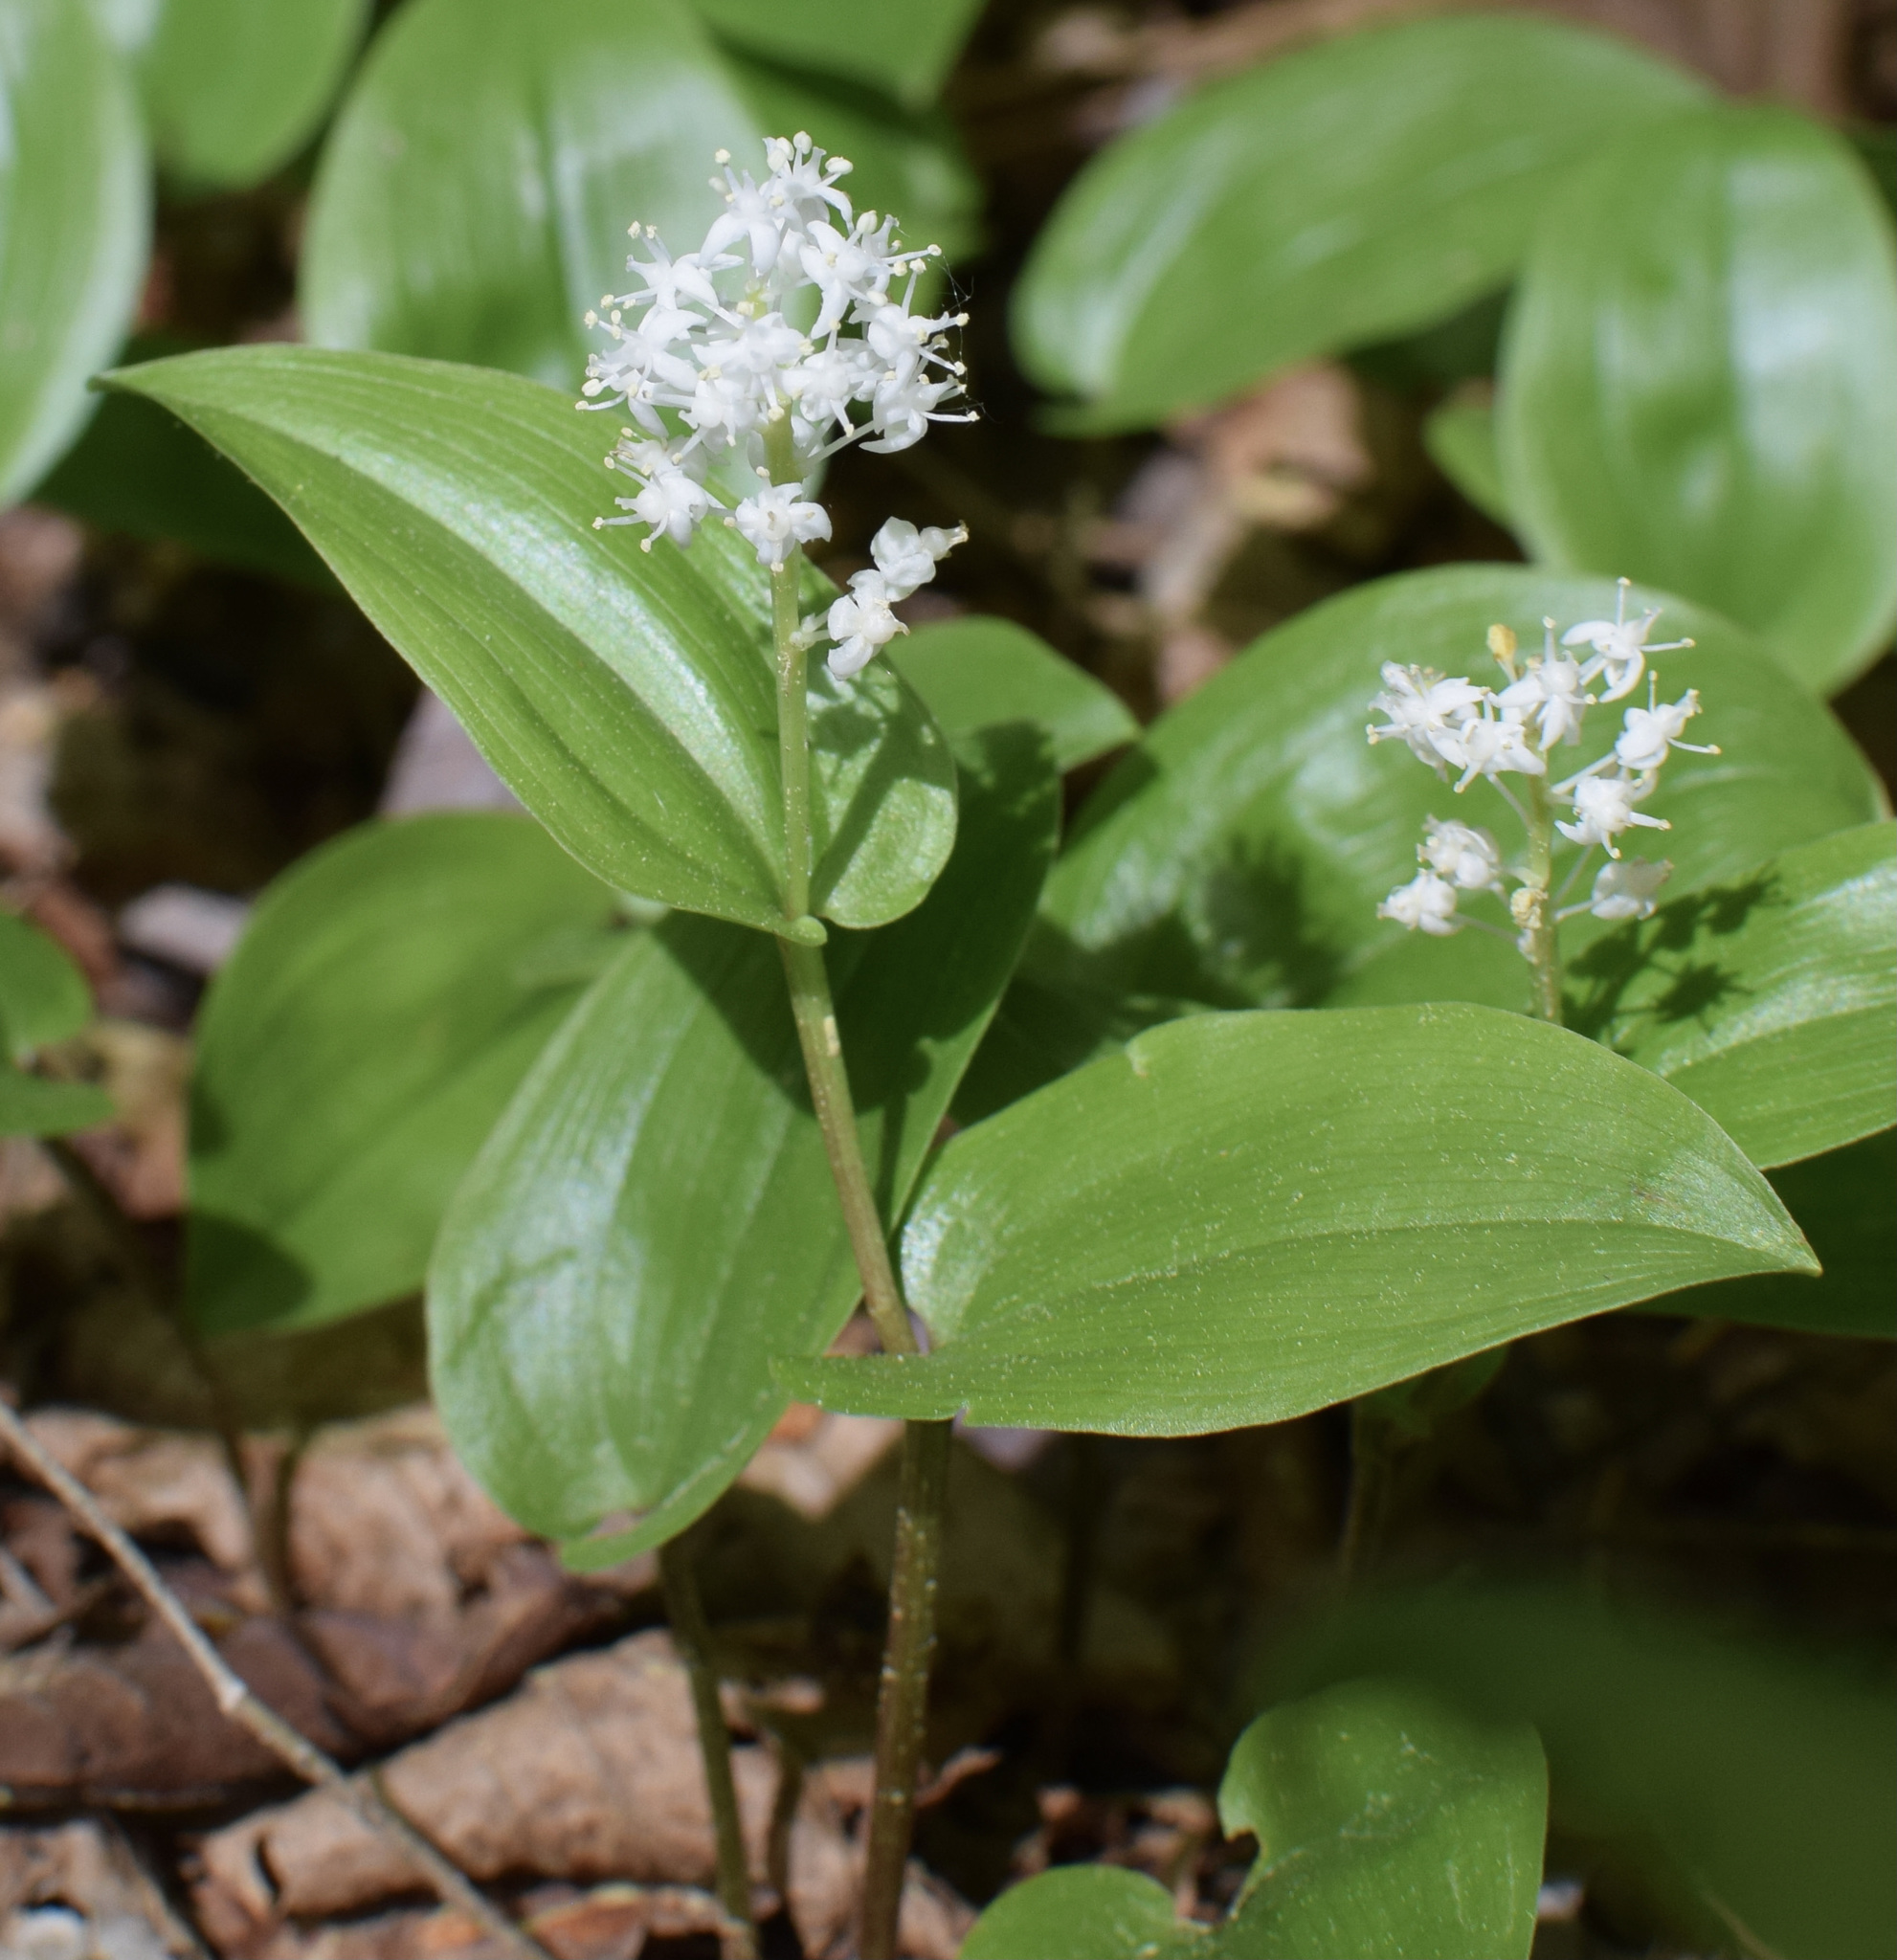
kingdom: Plantae
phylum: Tracheophyta
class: Liliopsida
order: Asparagales
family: Asparagaceae
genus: Maianthemum
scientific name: Maianthemum canadense
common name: False lily-of-the-valley
